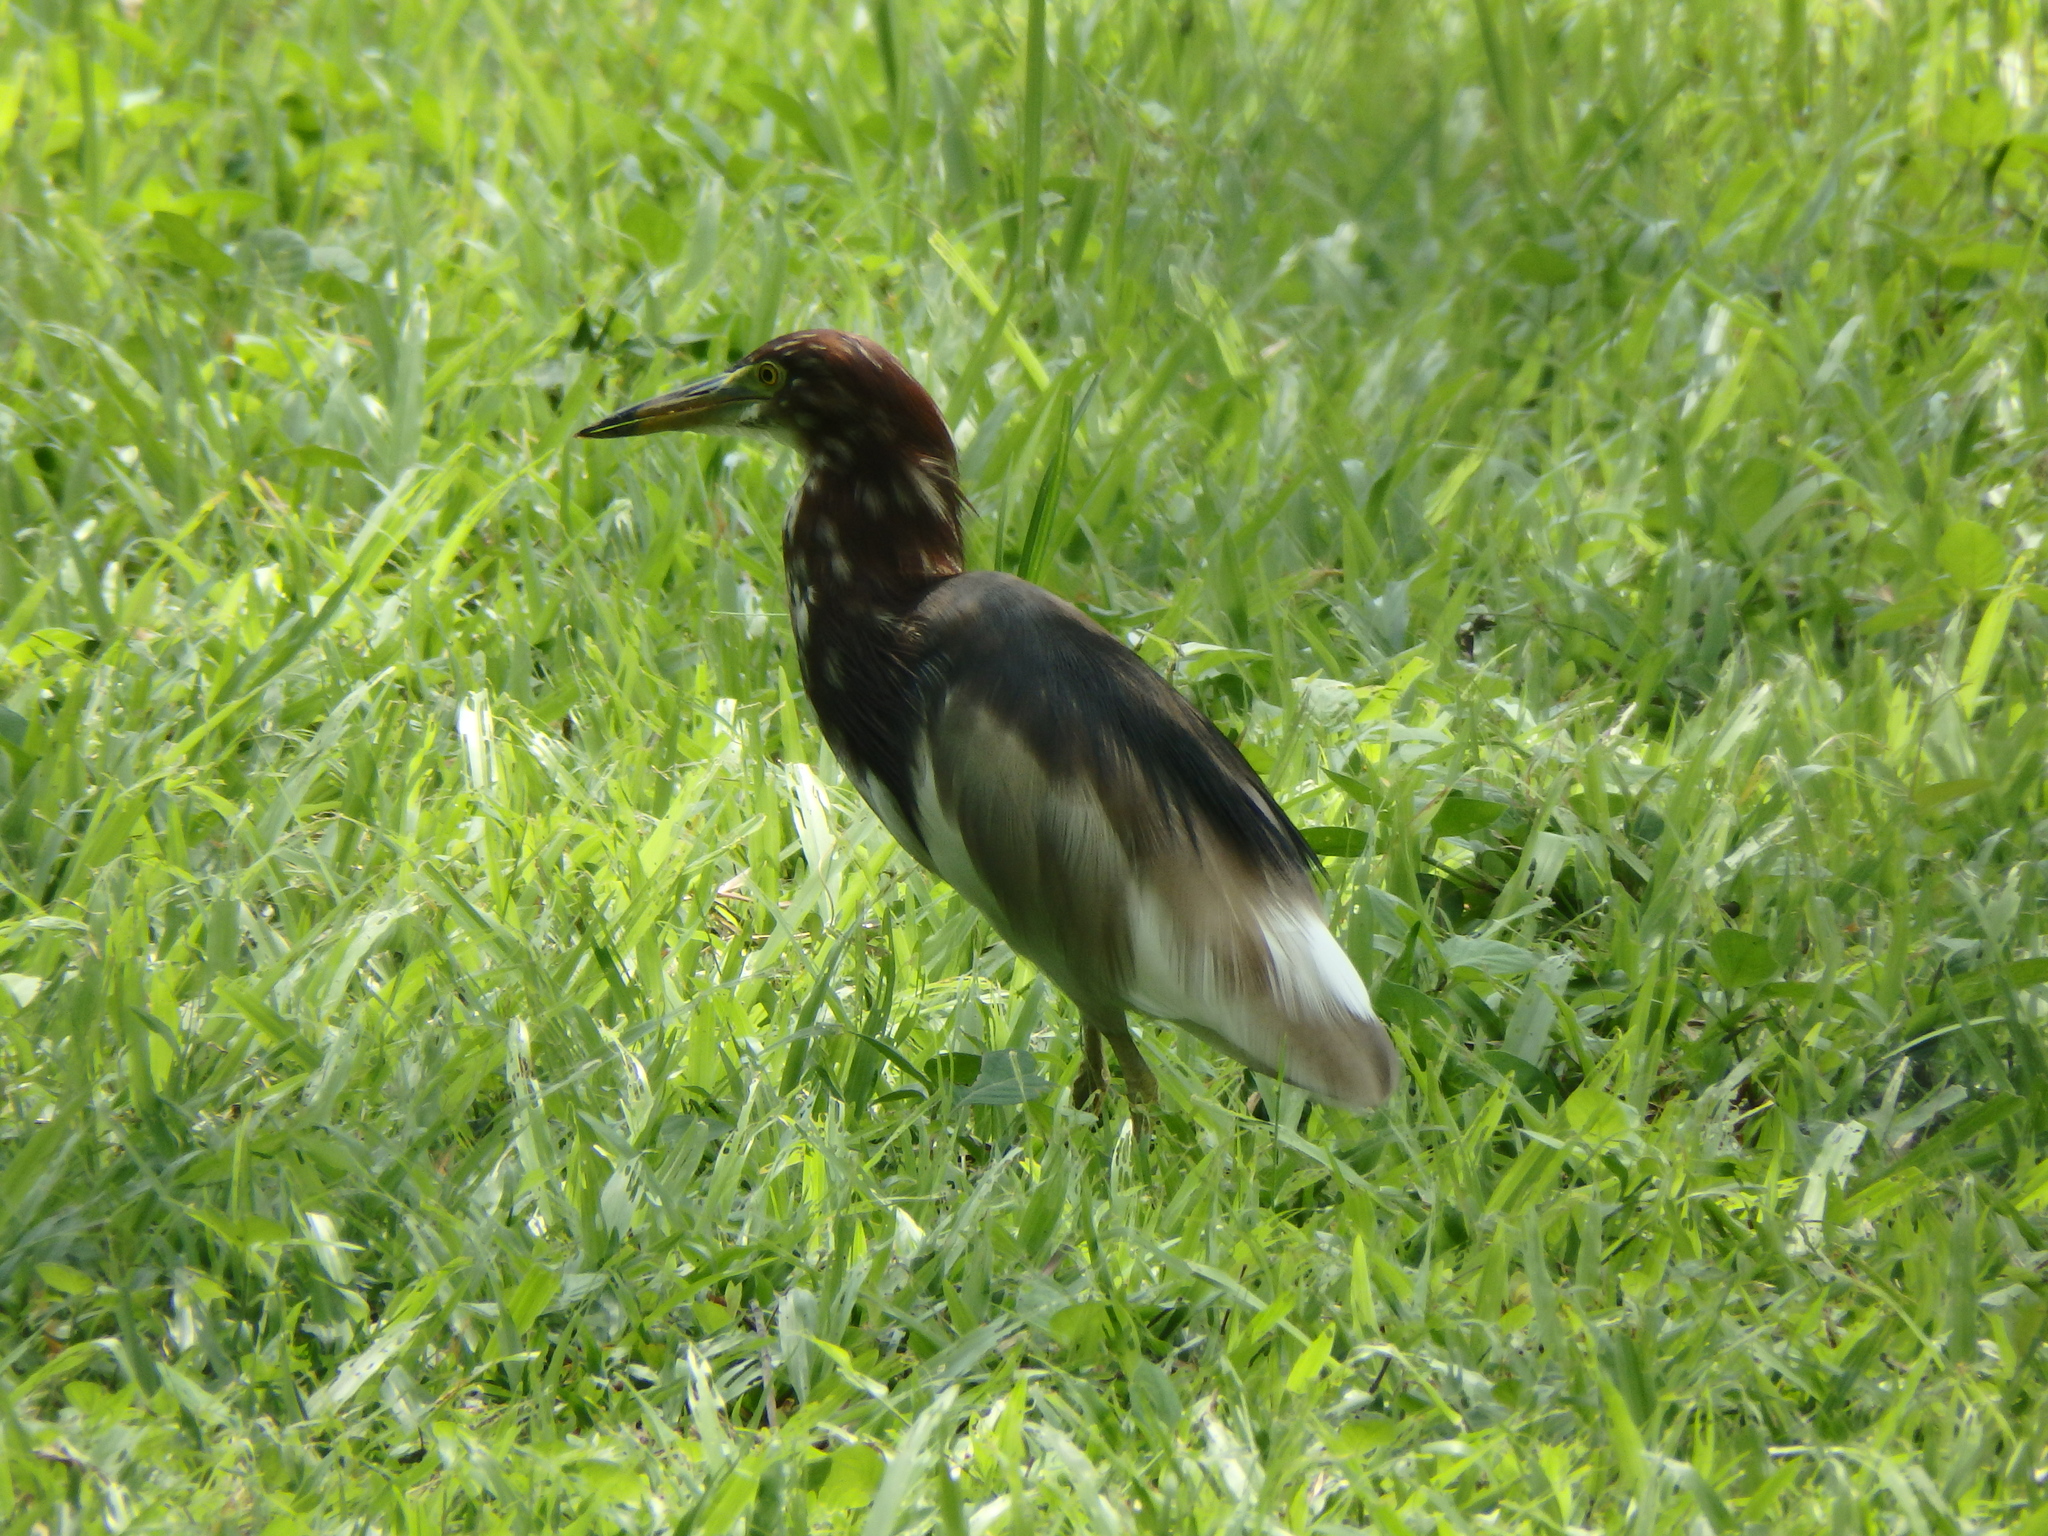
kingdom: Animalia
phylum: Chordata
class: Aves
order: Pelecaniformes
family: Ardeidae
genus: Ardeola
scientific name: Ardeola bacchus
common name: Chinese pond heron
